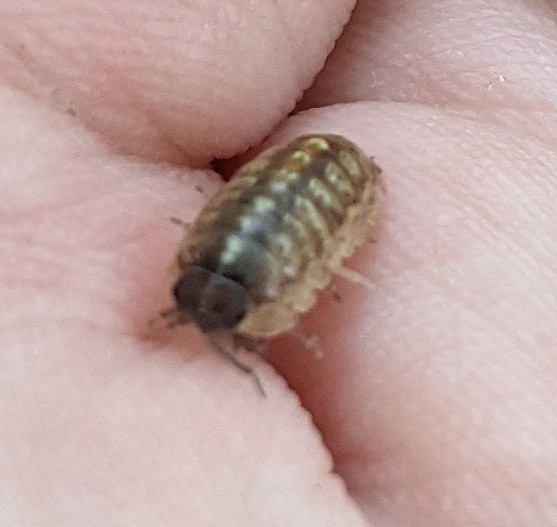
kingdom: Animalia
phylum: Arthropoda
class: Malacostraca
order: Isopoda
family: Armadillidiidae
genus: Armadillidium
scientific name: Armadillidium vulgare
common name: Common pill woodlouse
